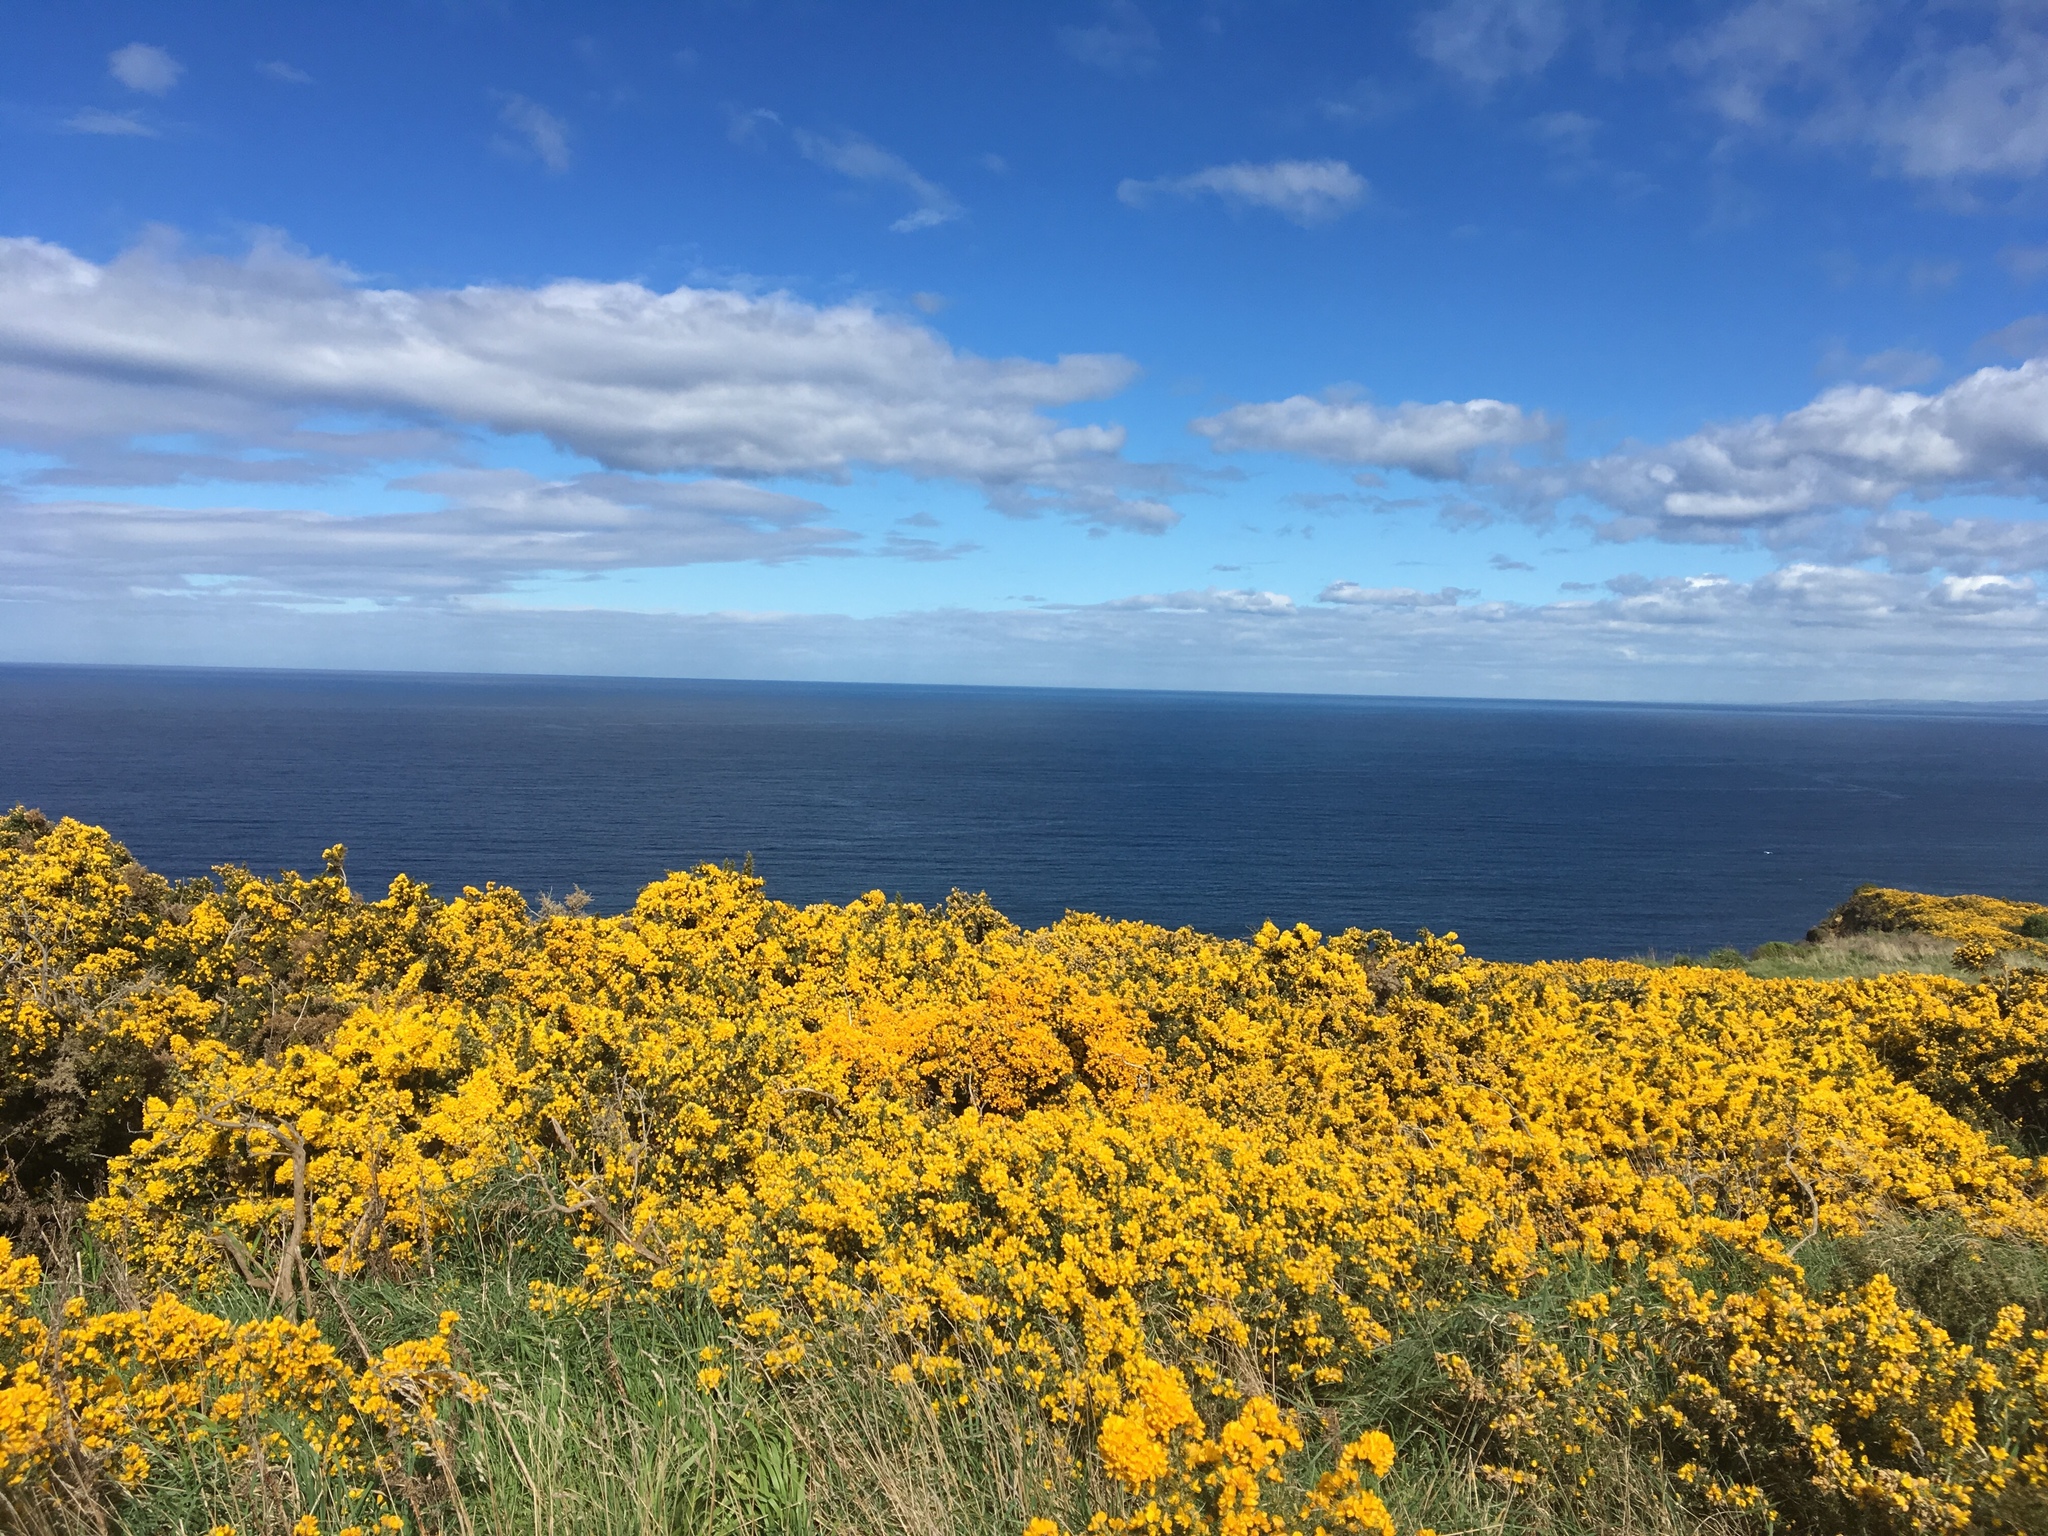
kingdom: Plantae
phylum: Tracheophyta
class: Magnoliopsida
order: Fabales
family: Fabaceae
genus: Ulex
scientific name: Ulex europaeus
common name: Common gorse
